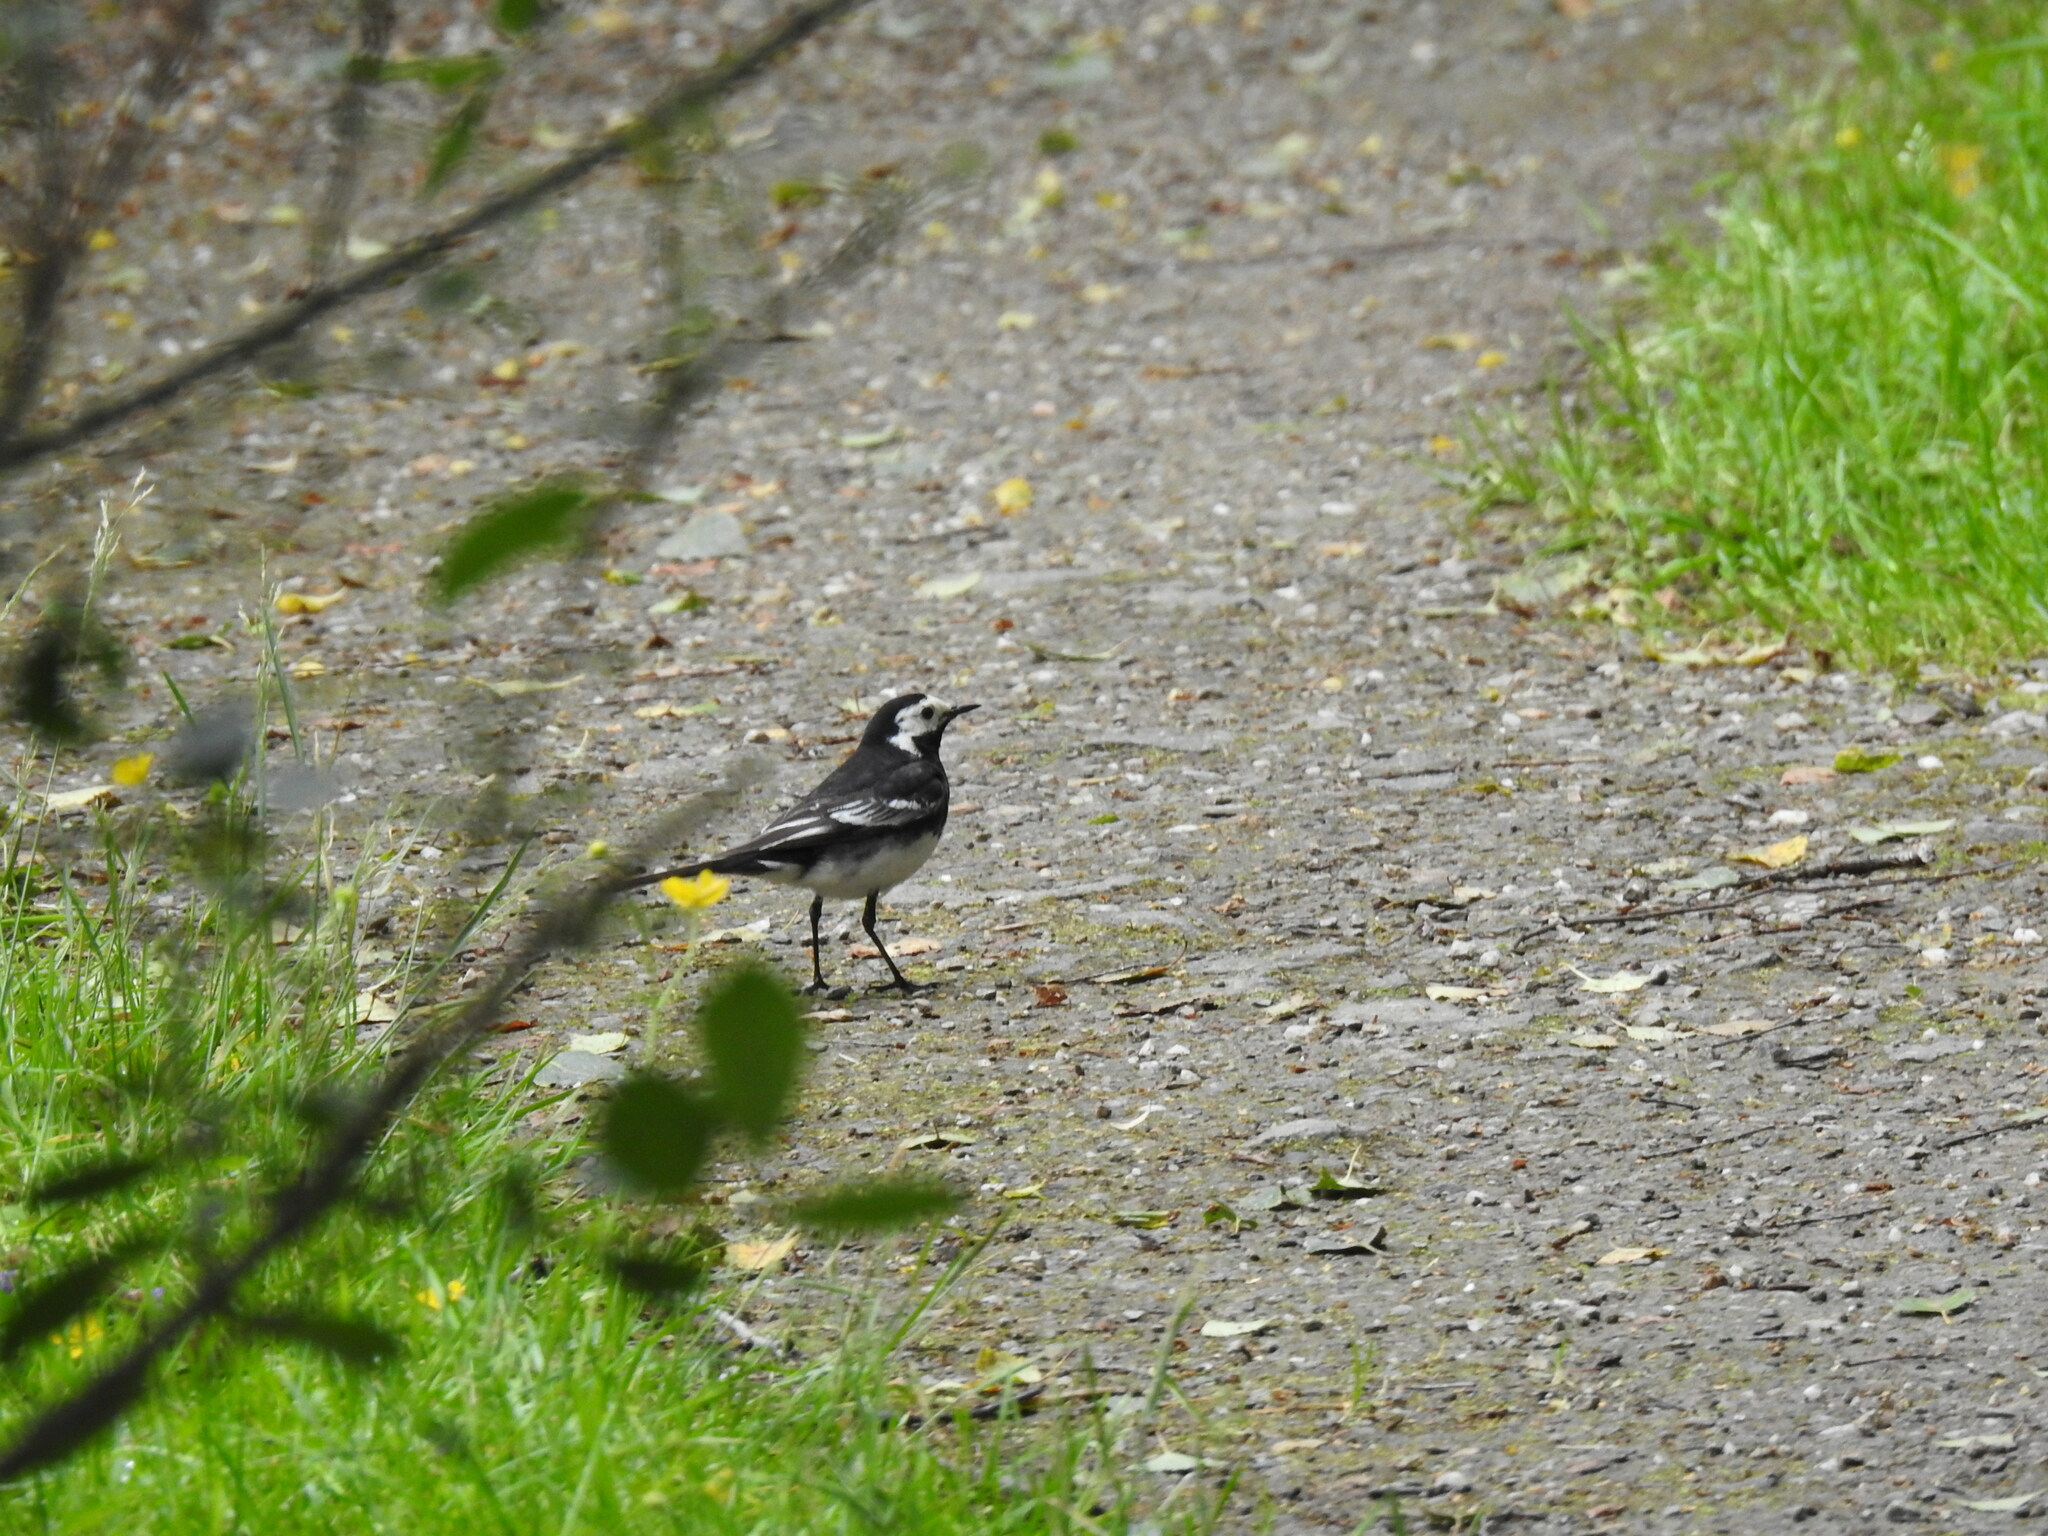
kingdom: Animalia
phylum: Chordata
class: Aves
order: Passeriformes
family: Motacillidae
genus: Motacilla
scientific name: Motacilla alba
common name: White wagtail
